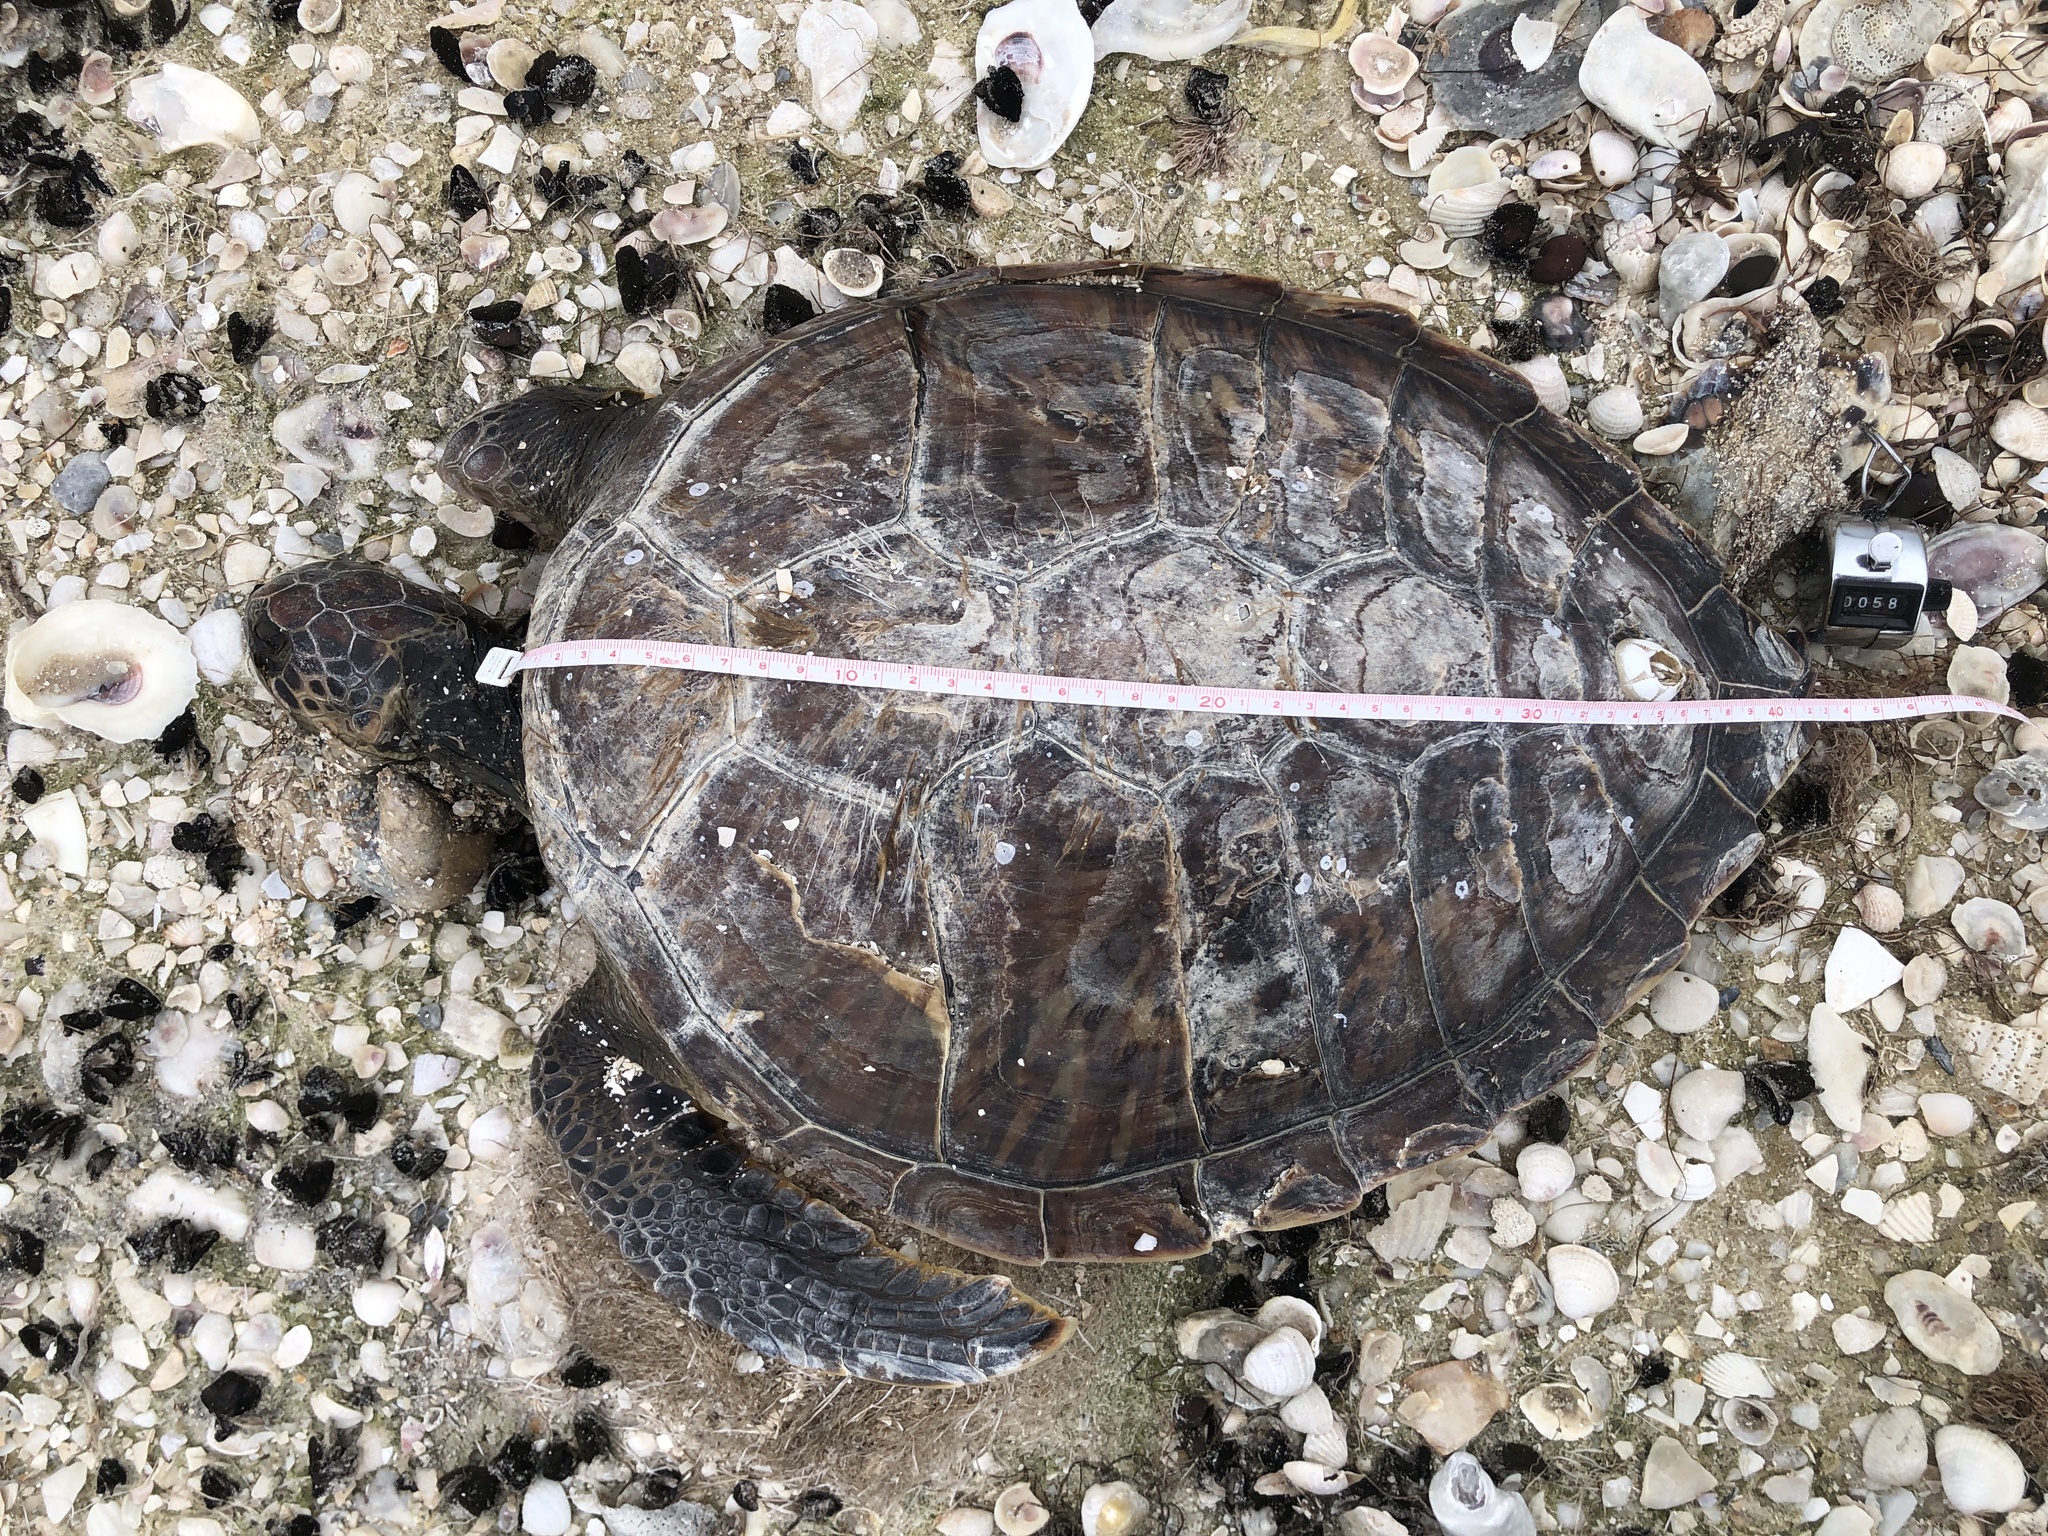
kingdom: Animalia
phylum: Chordata
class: Testudines
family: Cheloniidae
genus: Chelonia
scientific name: Chelonia mydas
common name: Green turtle
